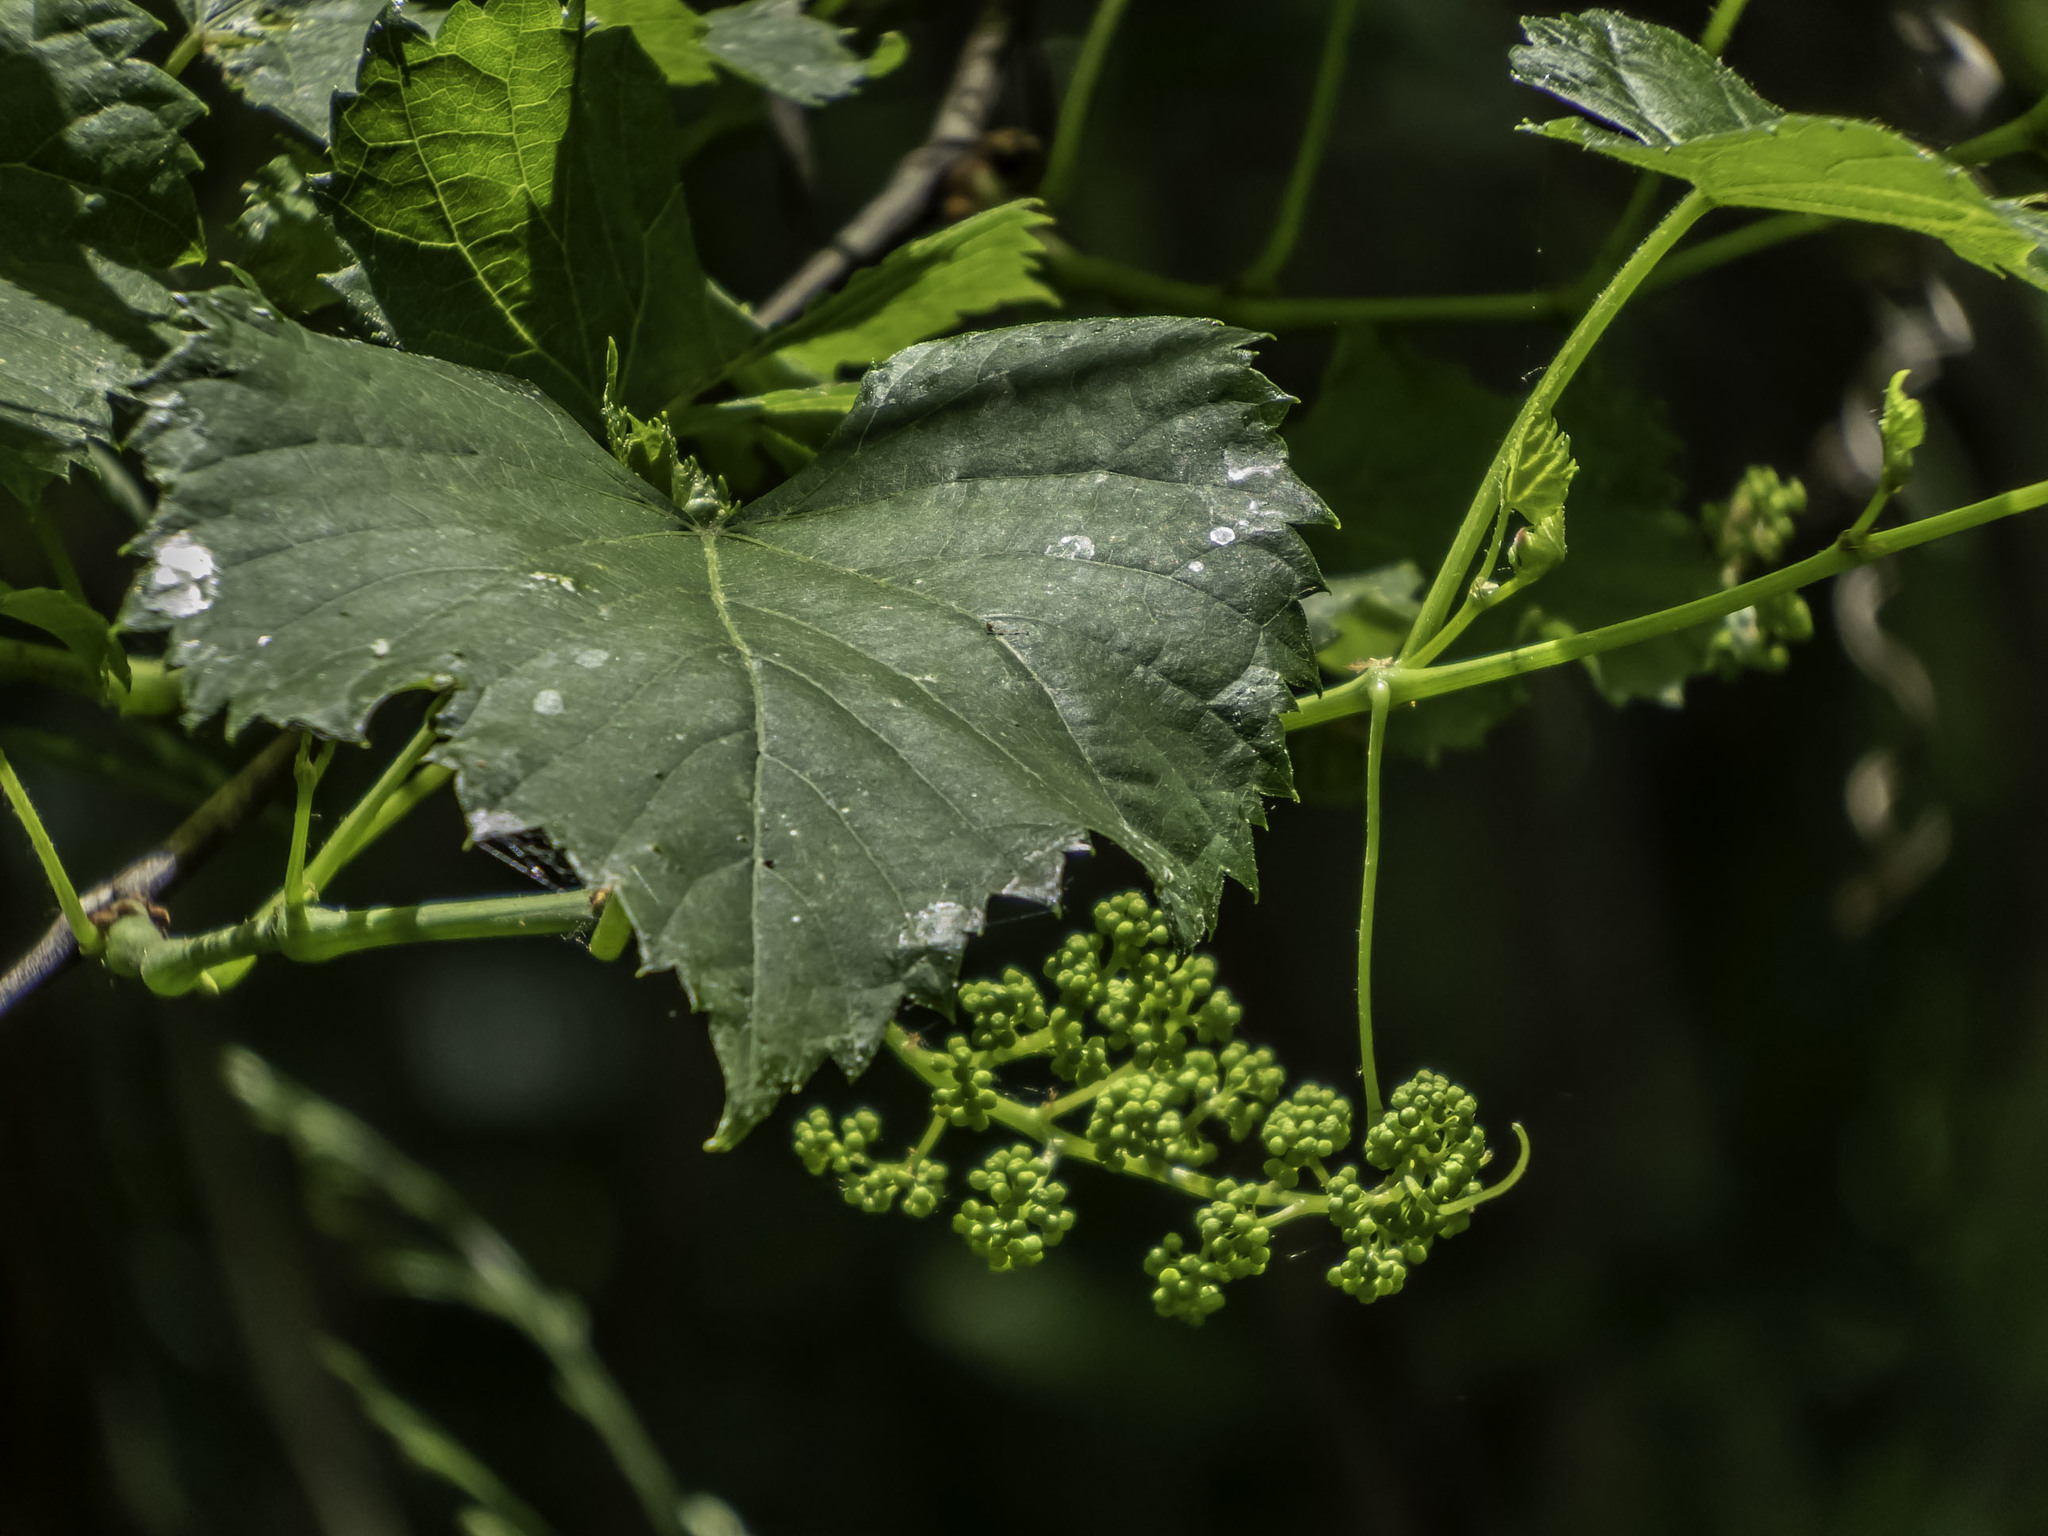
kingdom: Plantae
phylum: Tracheophyta
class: Magnoliopsida
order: Vitales
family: Vitaceae
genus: Vitis
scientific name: Vitis riparia
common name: Frost grape
